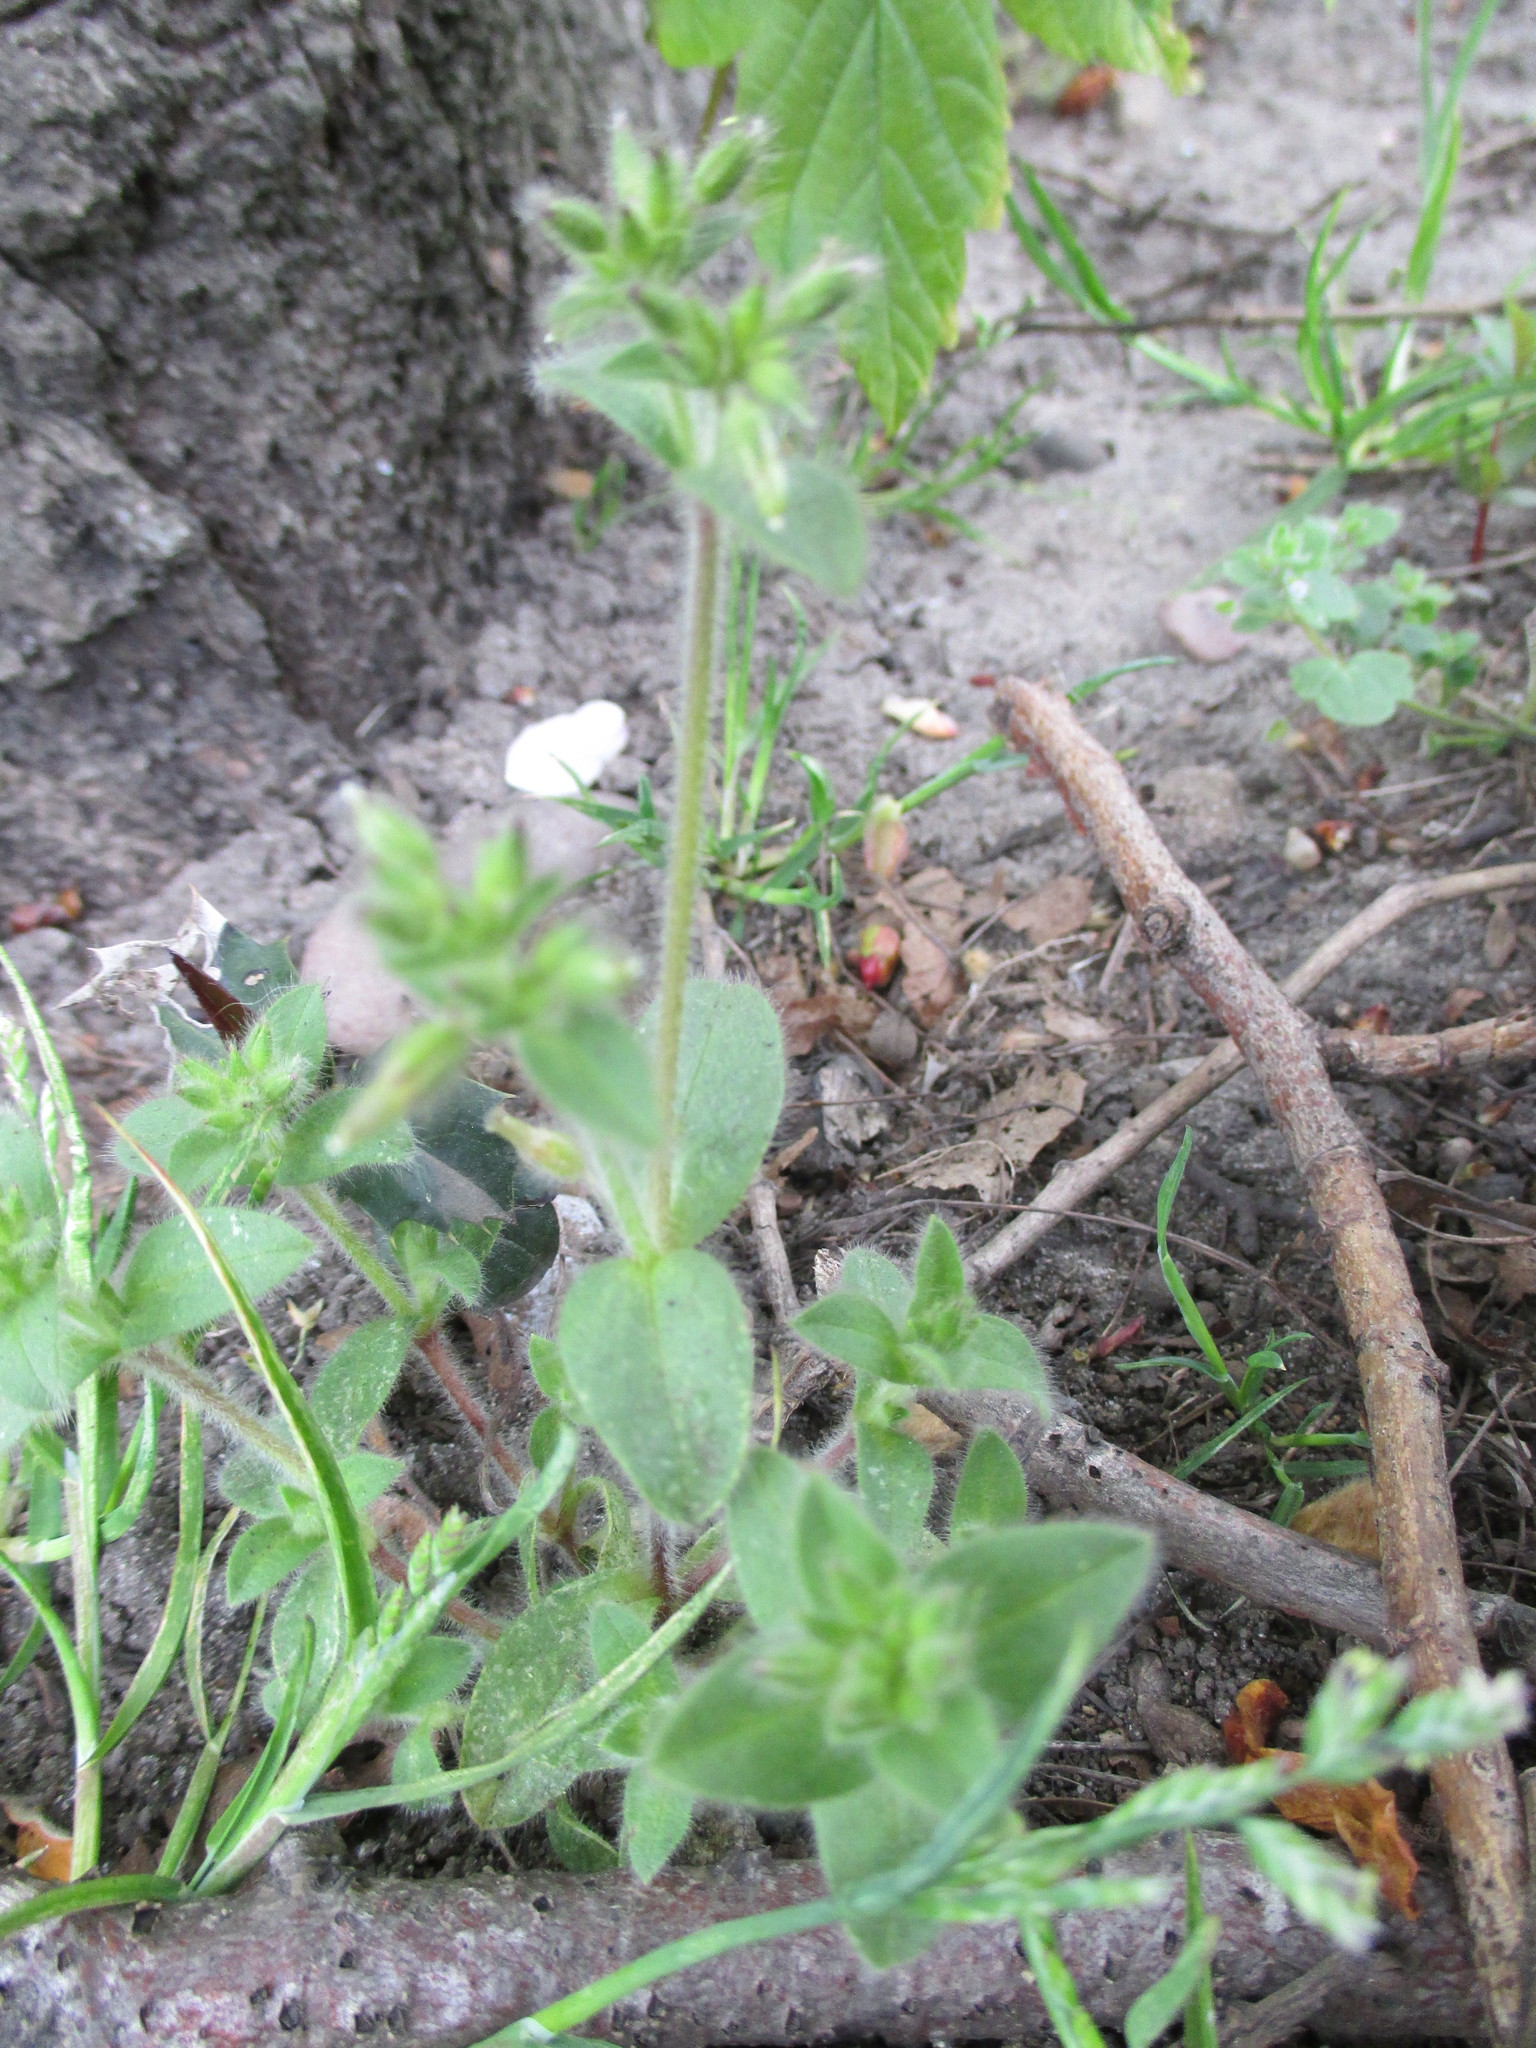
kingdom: Plantae
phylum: Tracheophyta
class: Magnoliopsida
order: Caryophyllales
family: Caryophyllaceae
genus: Cerastium
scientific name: Cerastium glomeratum
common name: Sticky chickweed
